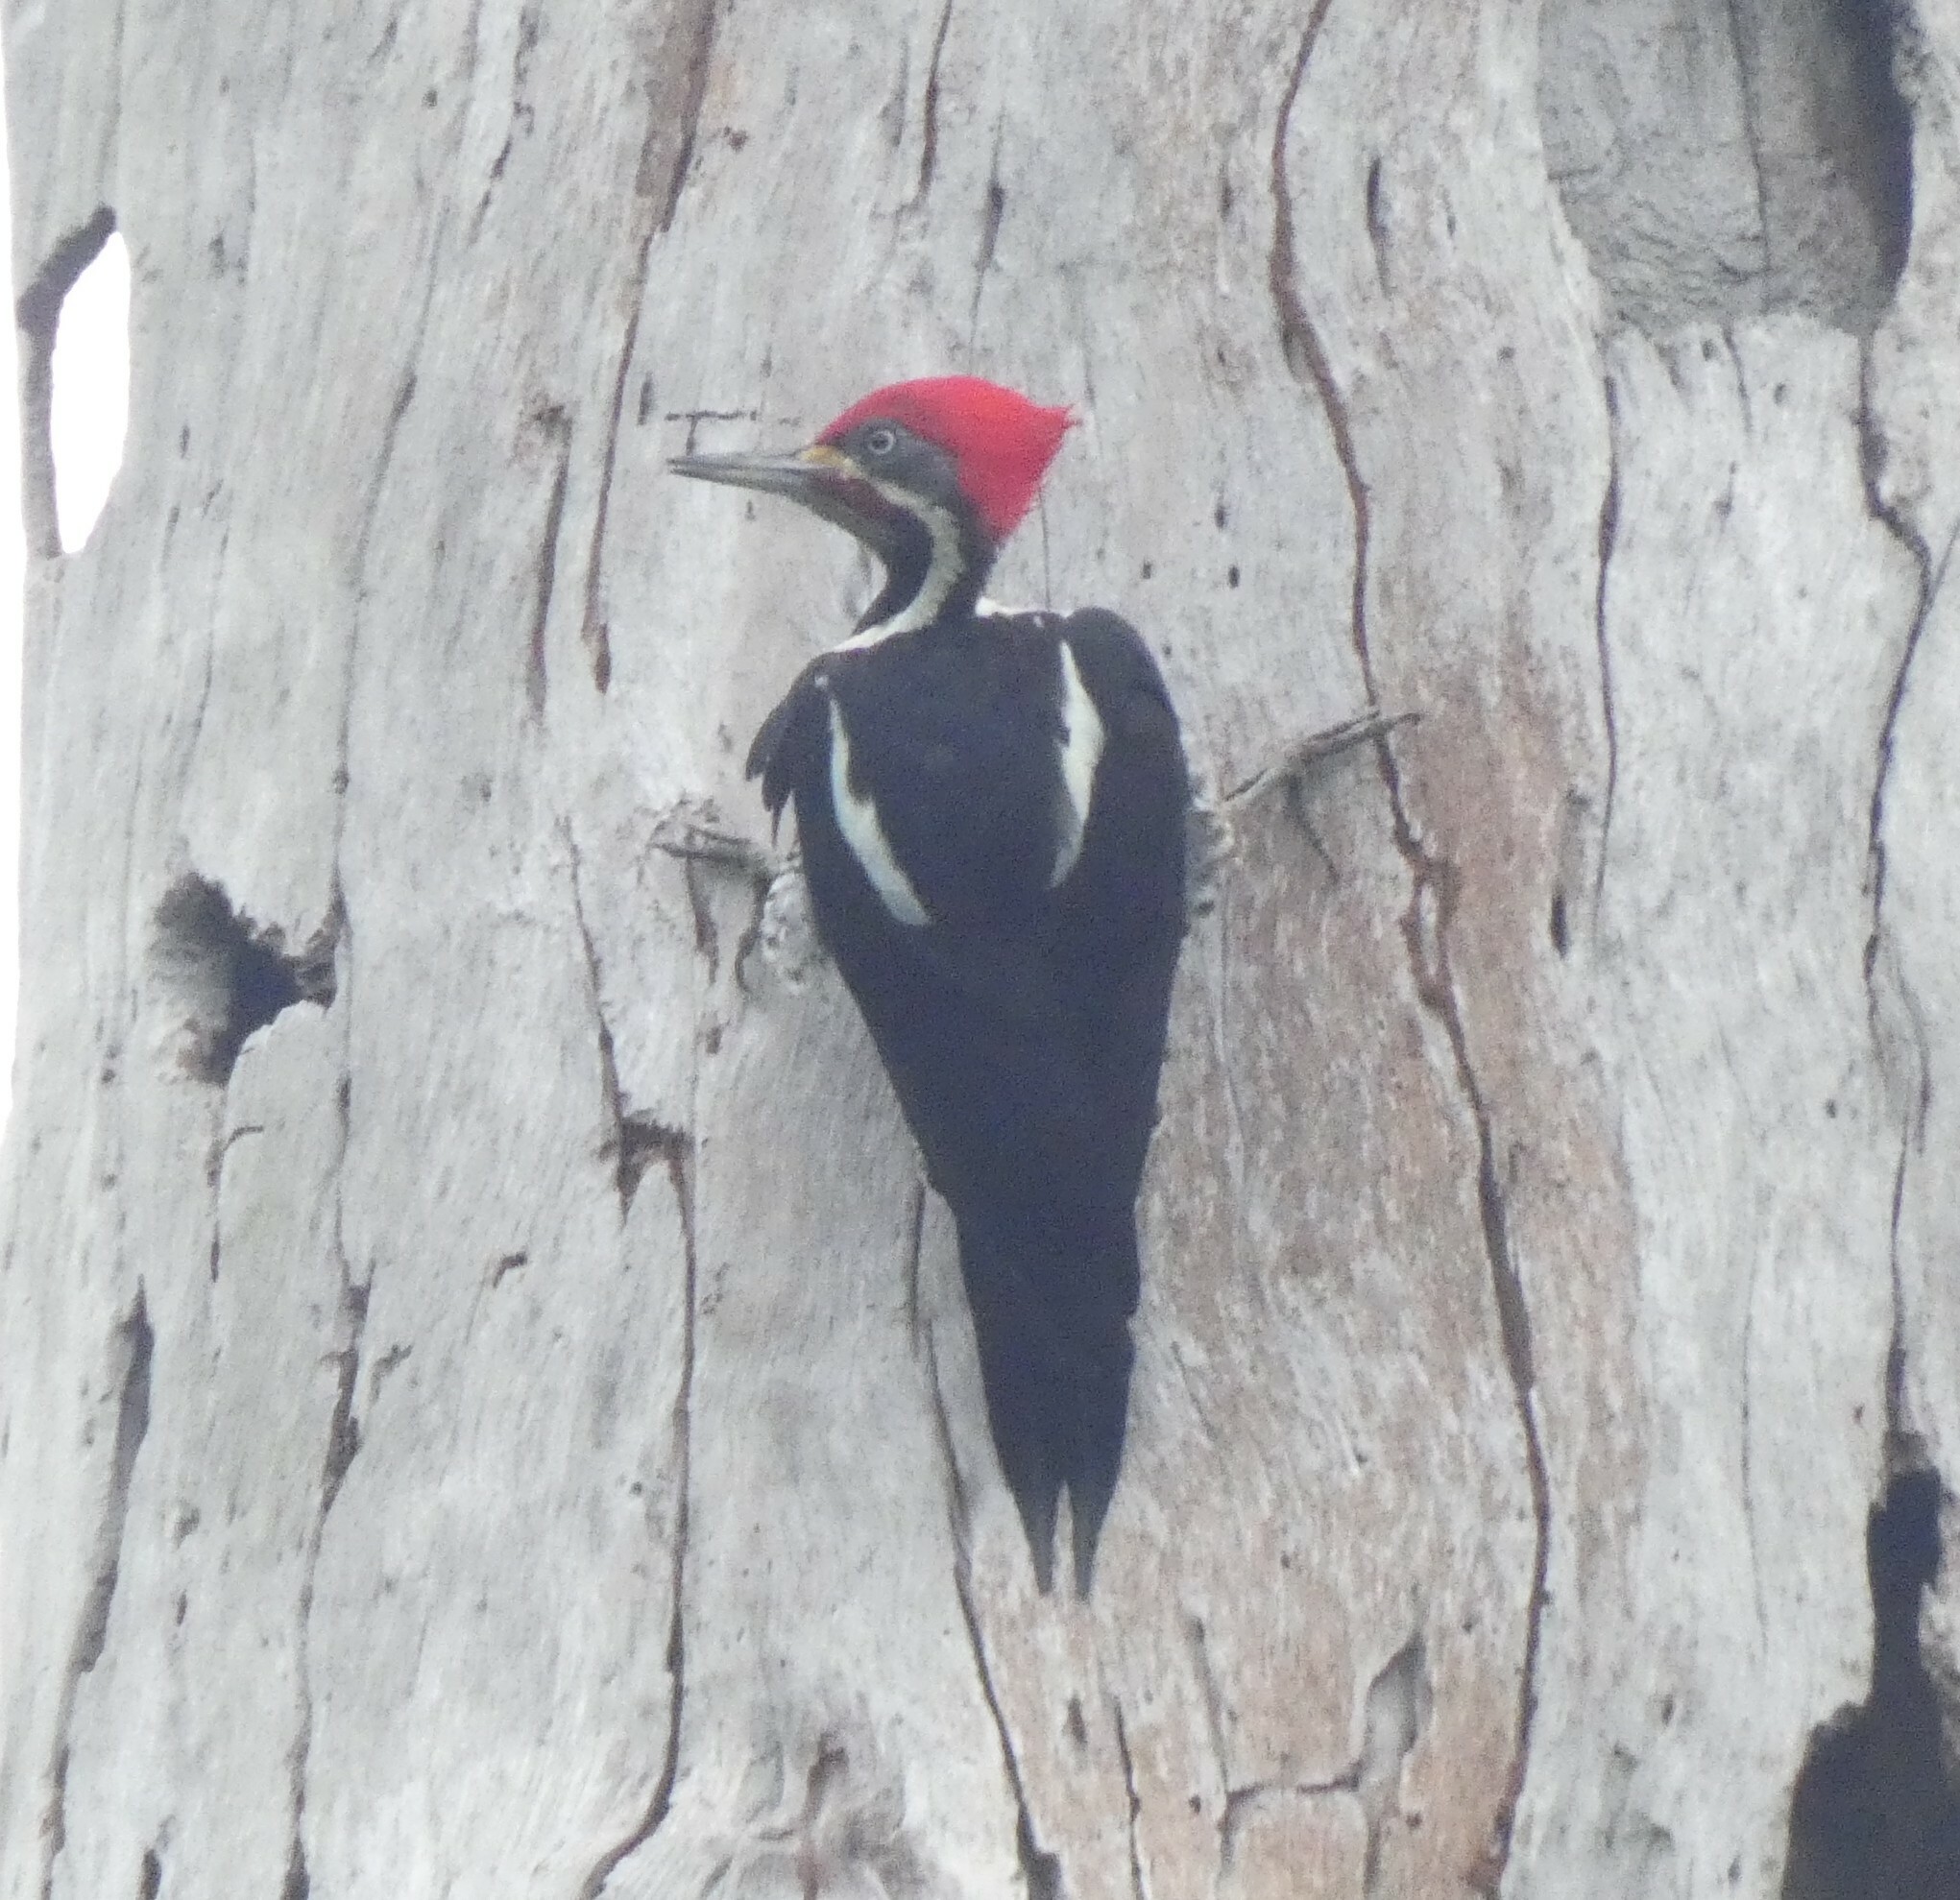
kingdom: Animalia
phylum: Chordata
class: Aves
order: Piciformes
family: Picidae
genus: Dryocopus
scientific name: Dryocopus lineatus
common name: Lineated woodpecker
